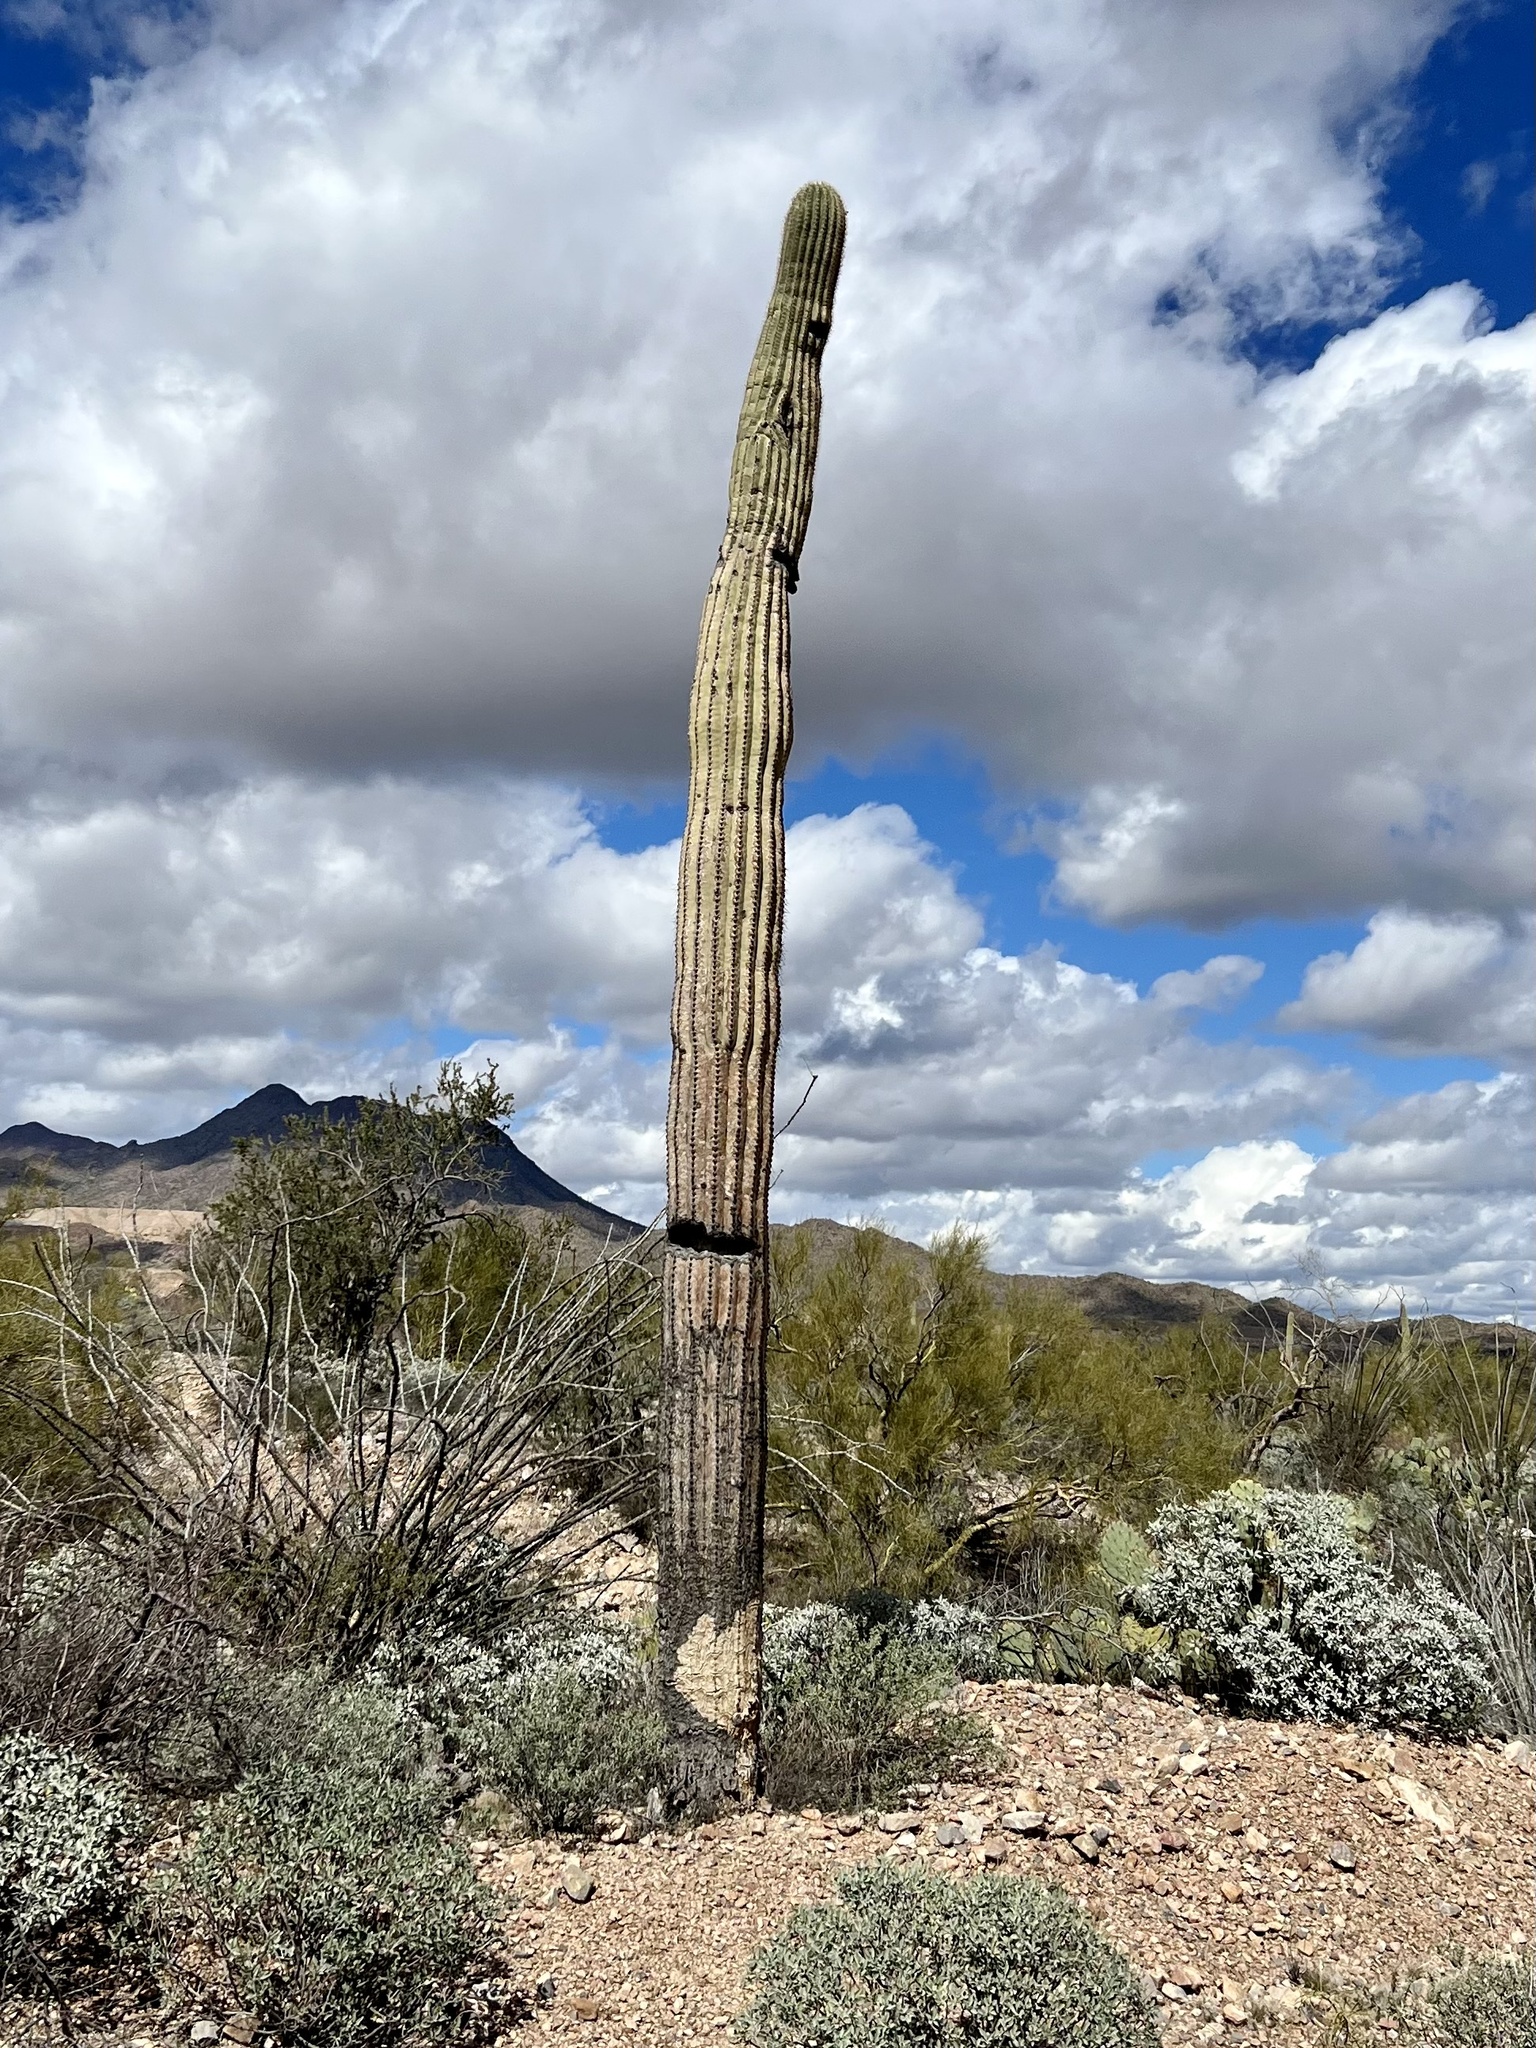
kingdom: Plantae
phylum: Tracheophyta
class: Magnoliopsida
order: Caryophyllales
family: Cactaceae
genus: Carnegiea
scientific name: Carnegiea gigantea
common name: Saguaro
